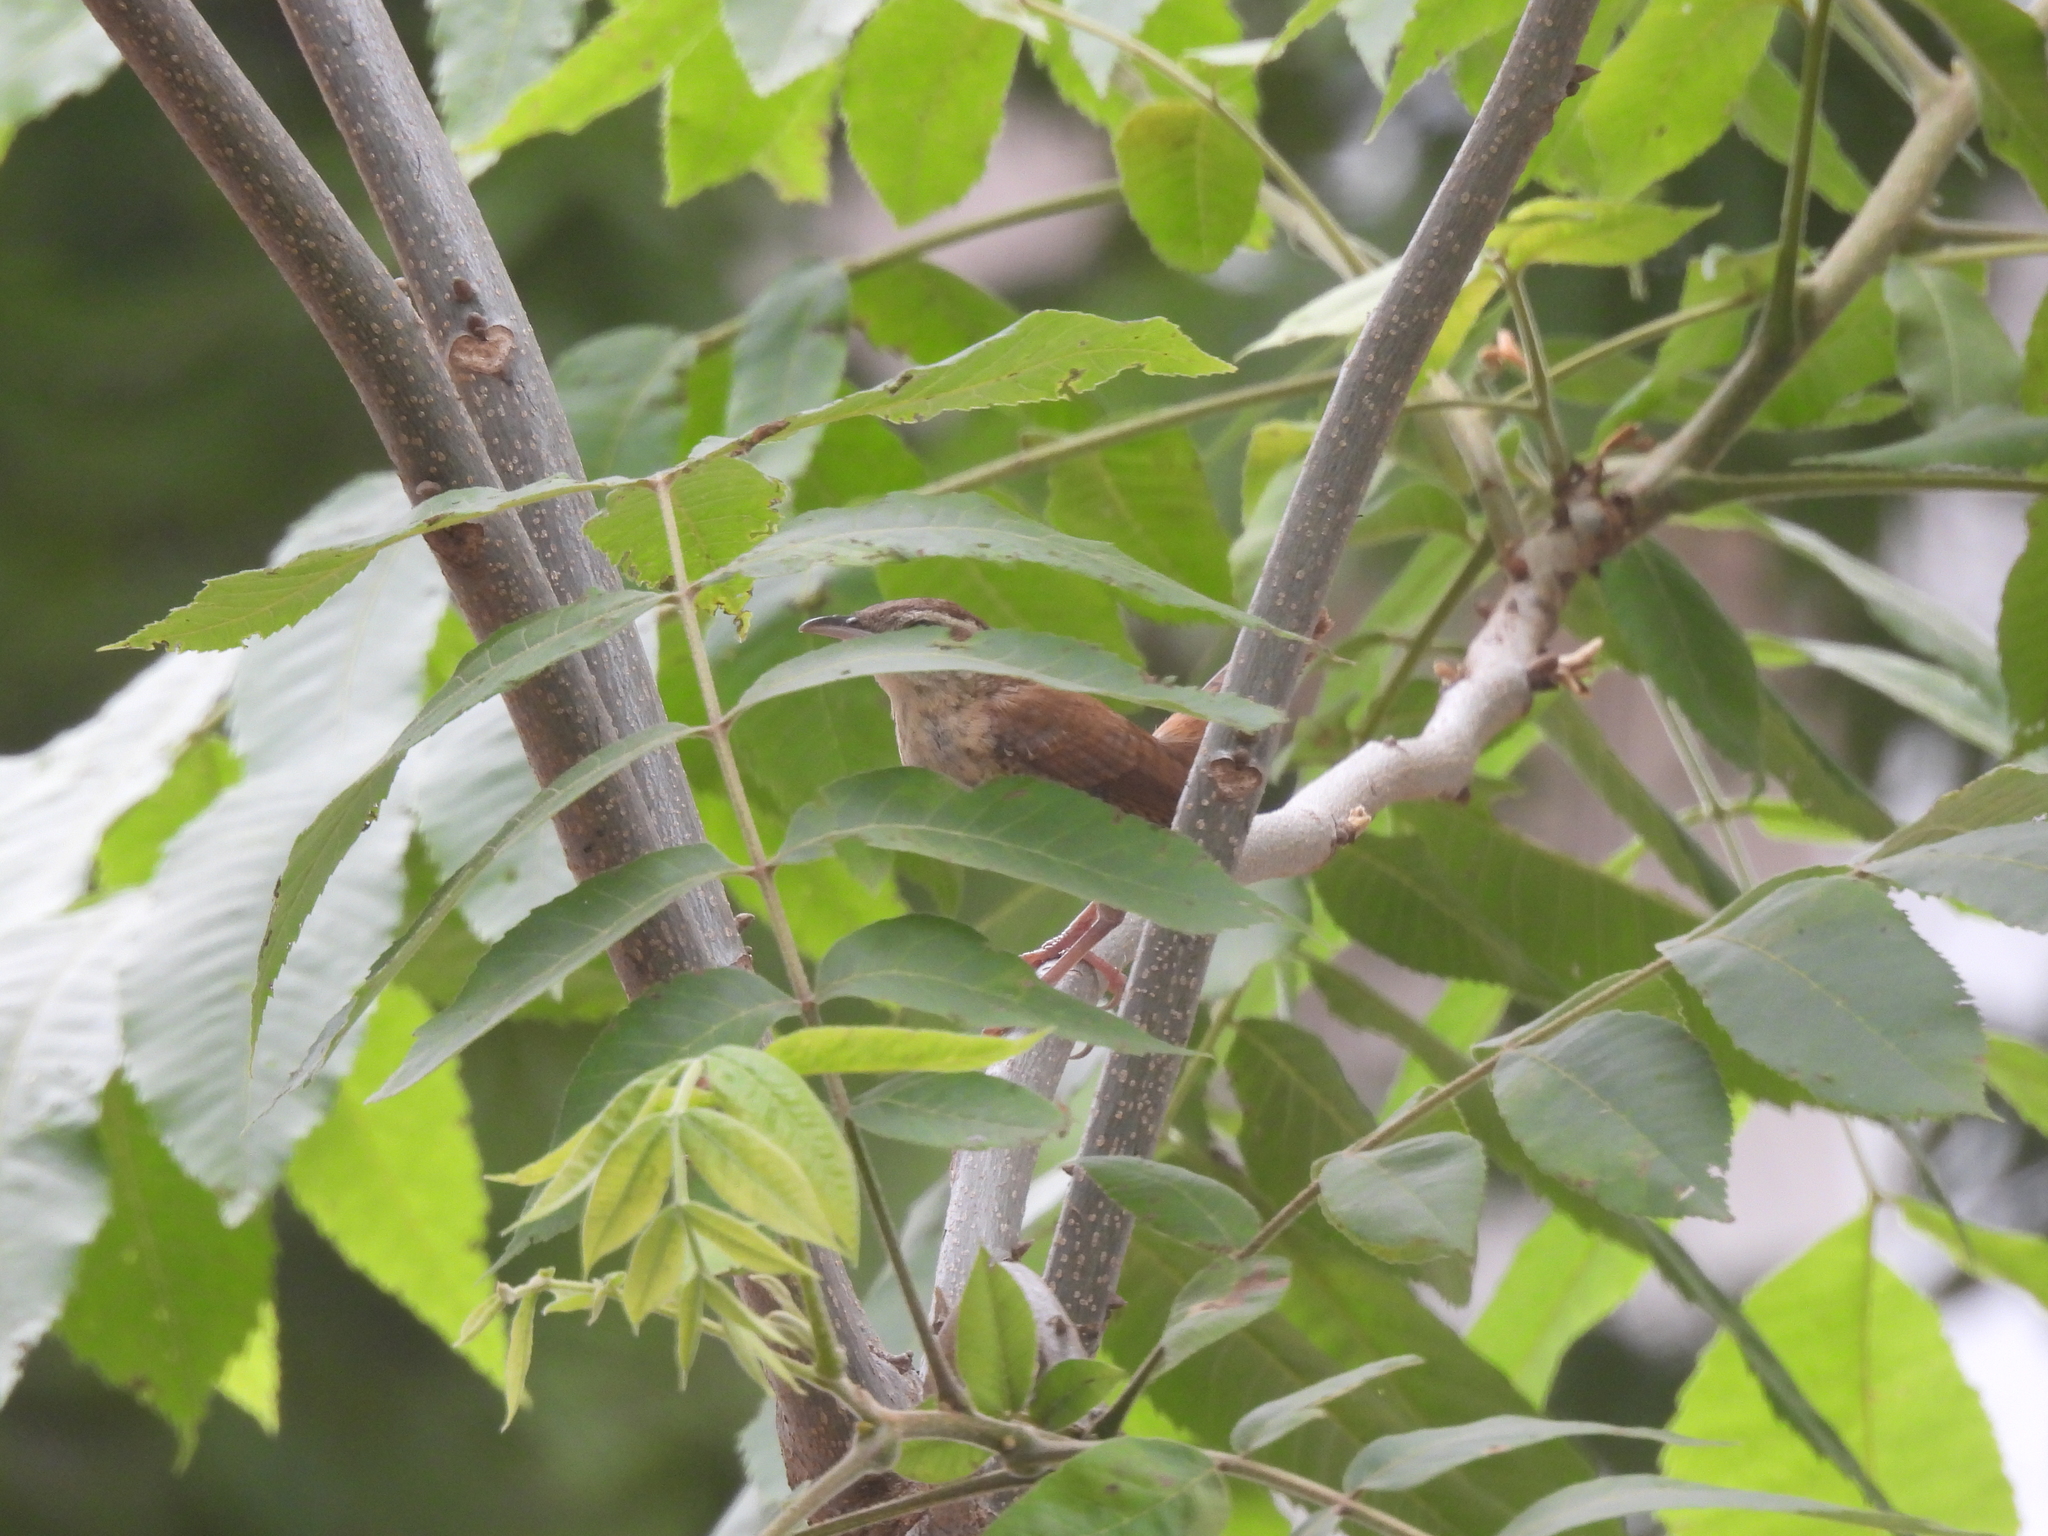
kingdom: Animalia
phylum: Chordata
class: Aves
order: Passeriformes
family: Troglodytidae
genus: Thryothorus
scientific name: Thryothorus ludovicianus
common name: Carolina wren
